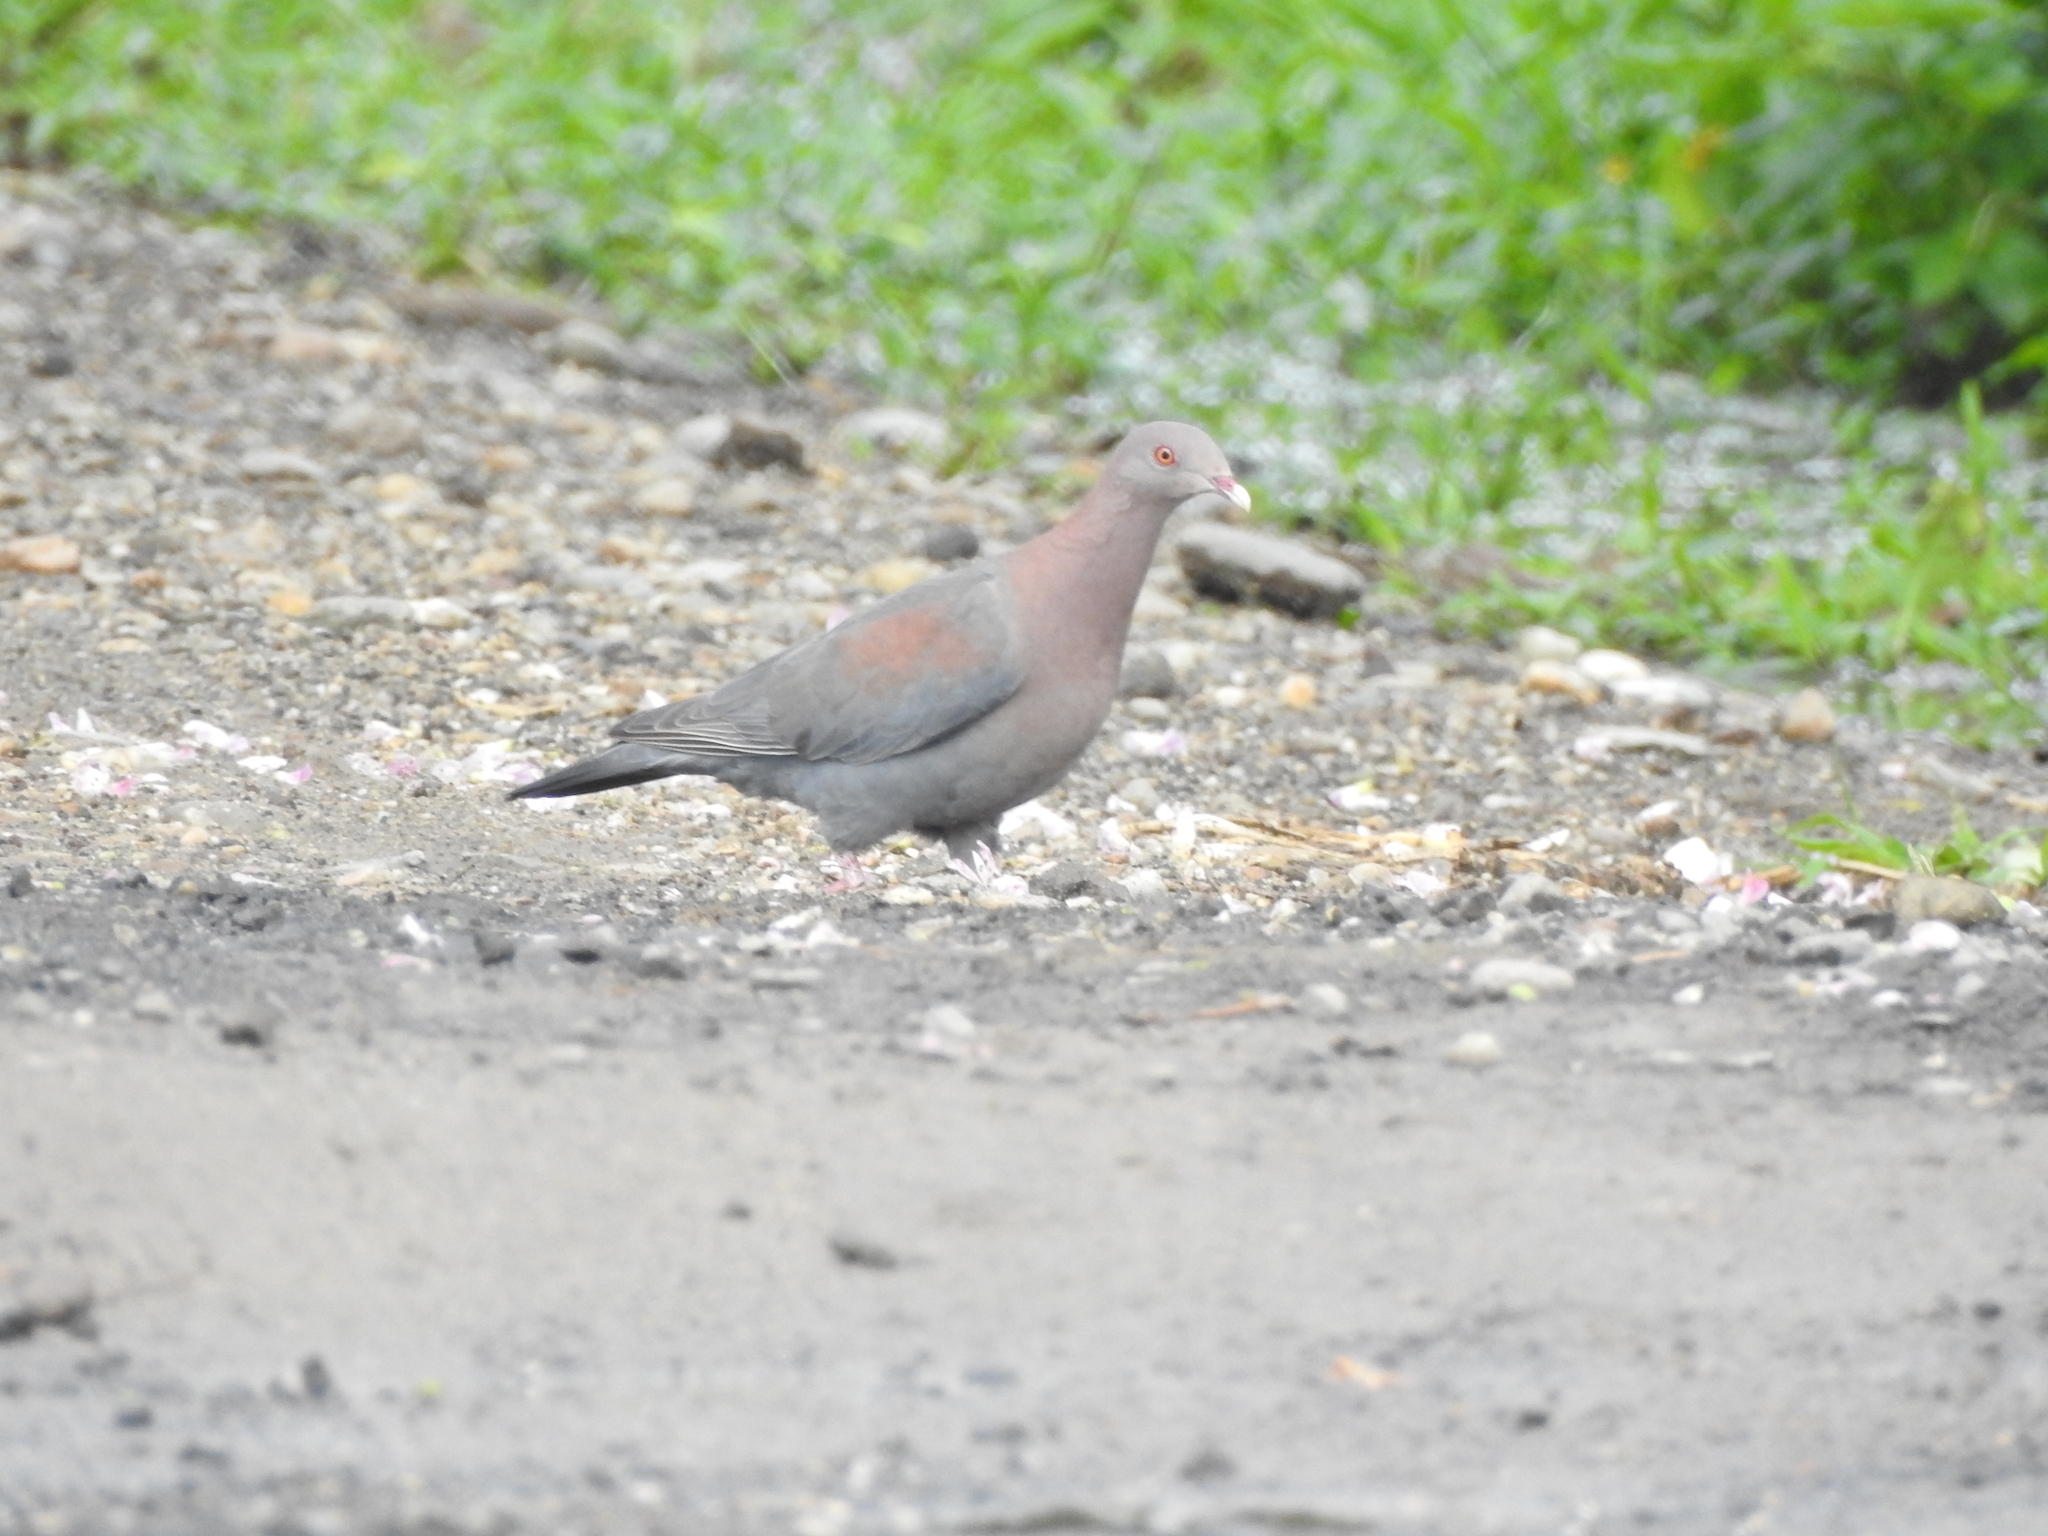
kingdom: Animalia
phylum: Chordata
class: Aves
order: Columbiformes
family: Columbidae
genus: Patagioenas
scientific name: Patagioenas flavirostris
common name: Red-billed pigeon
